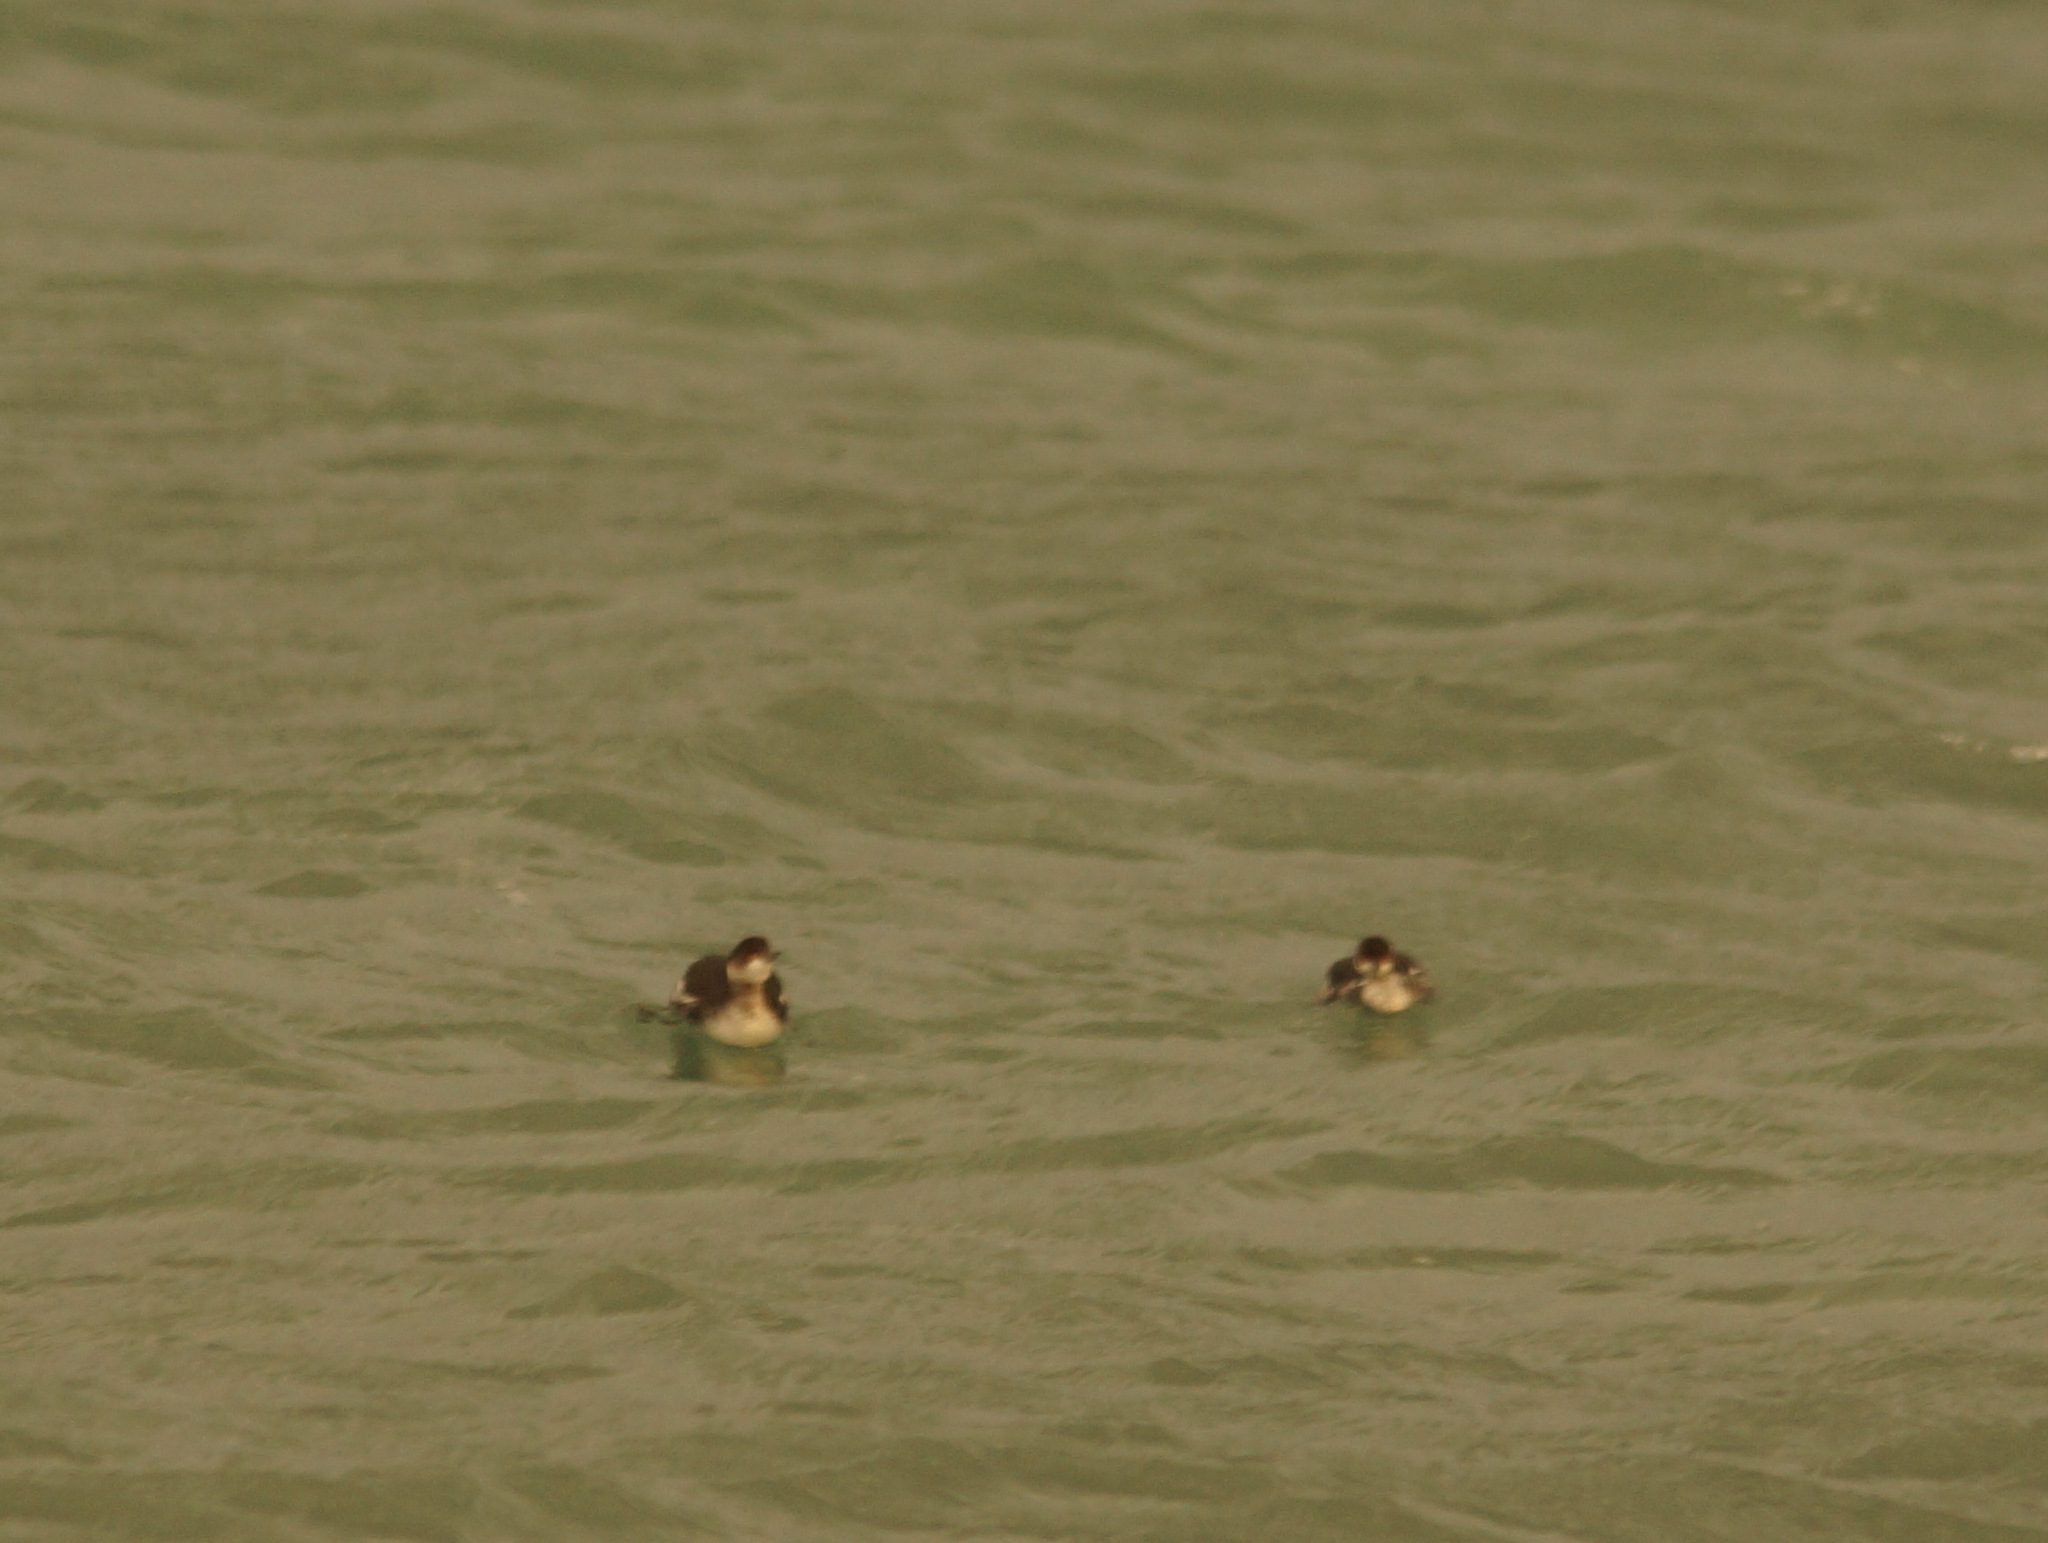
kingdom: Animalia
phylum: Chordata
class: Aves
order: Podicipediformes
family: Podicipedidae
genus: Podiceps
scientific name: Podiceps nigricollis
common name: Black-necked grebe
